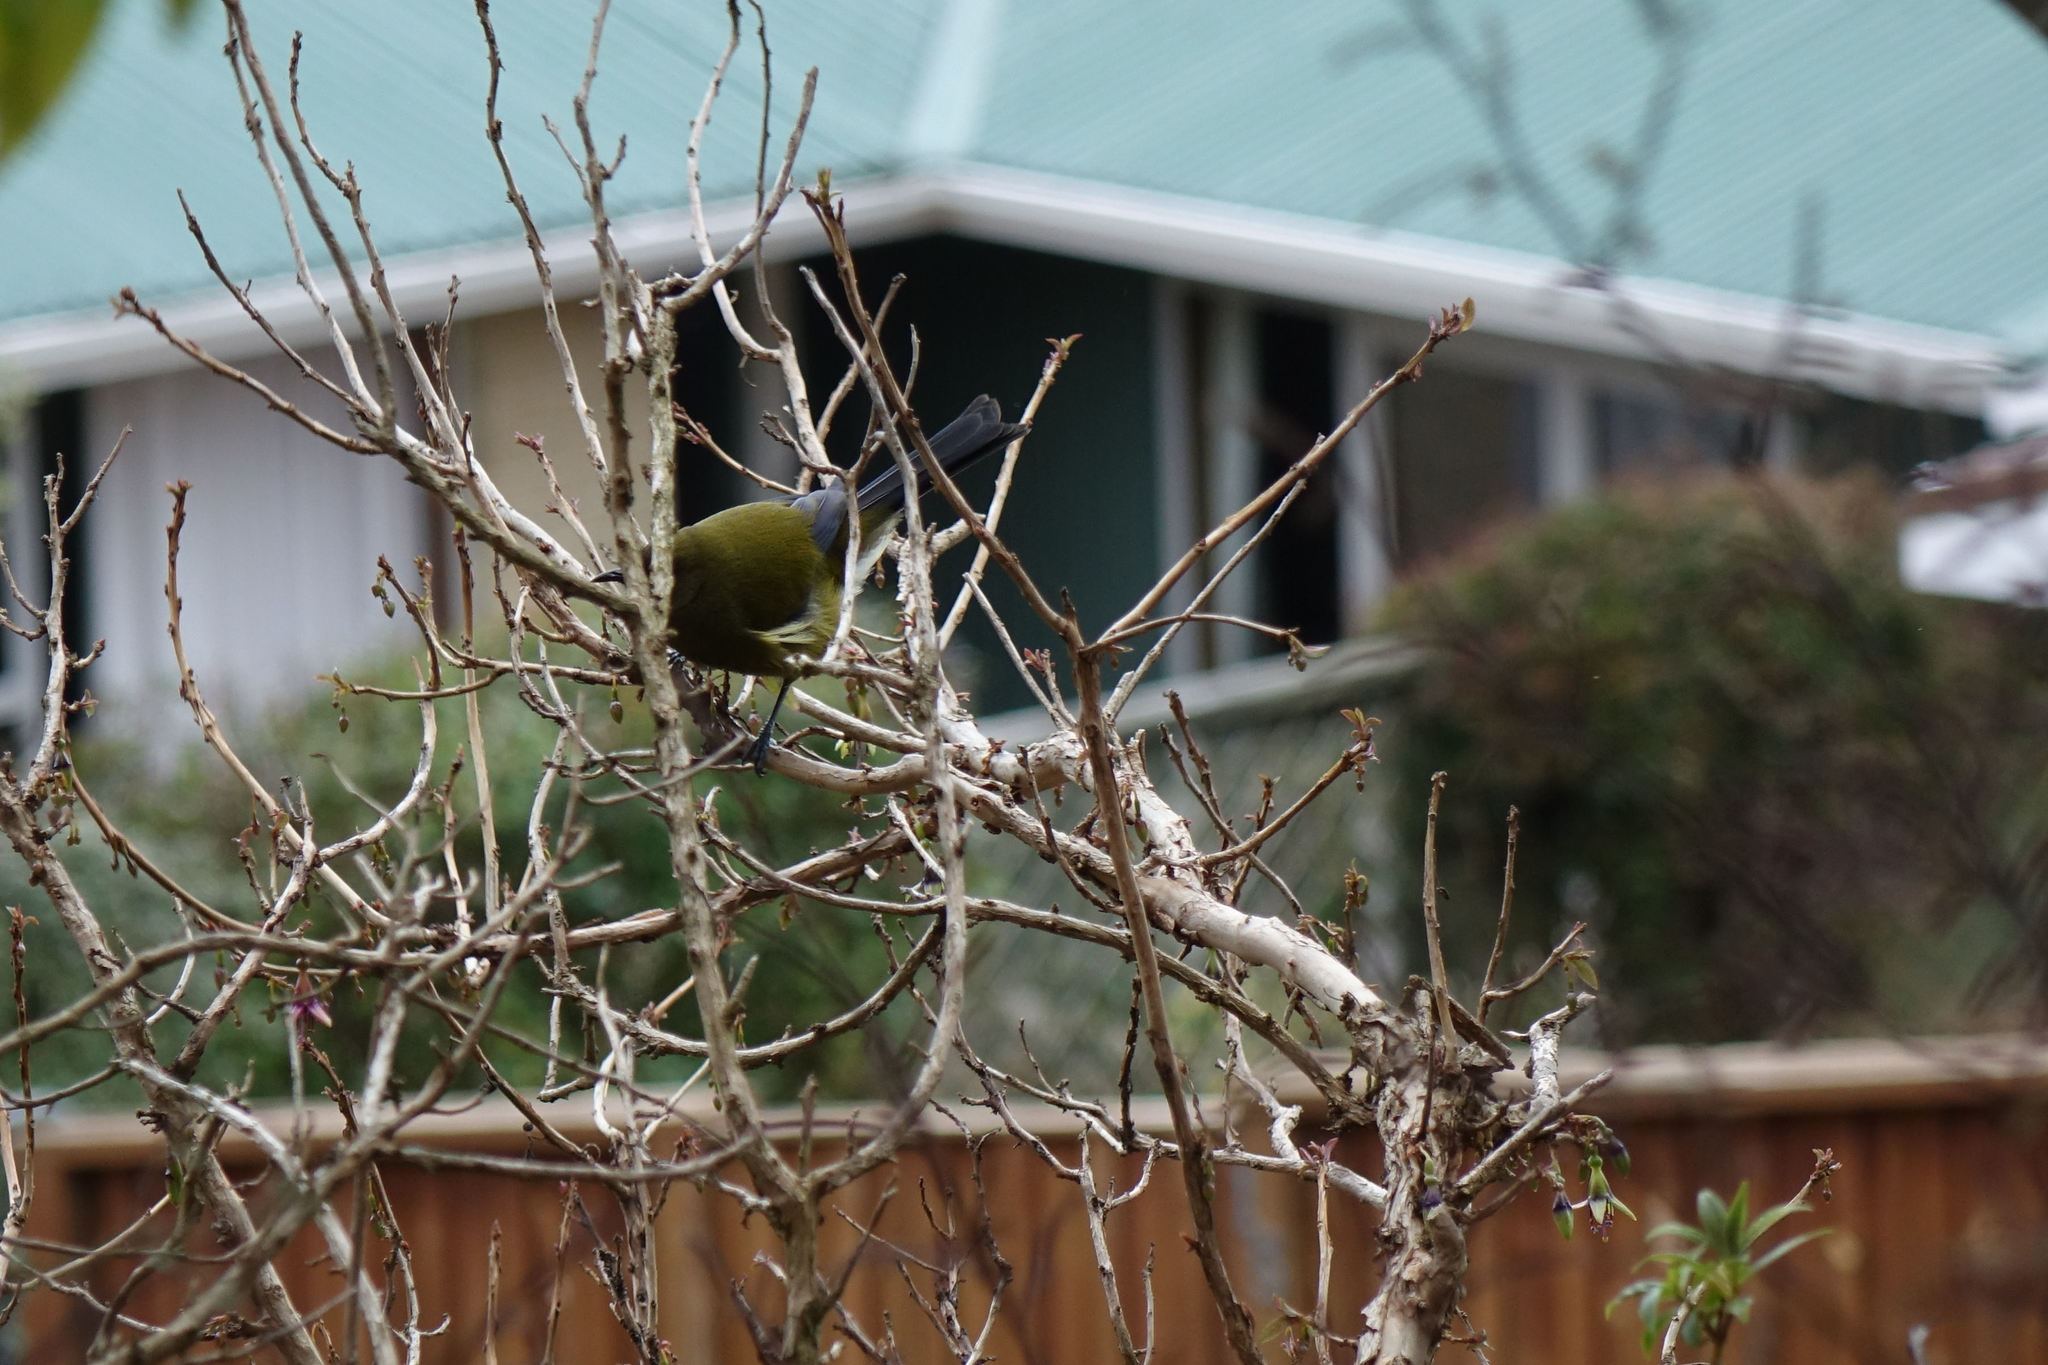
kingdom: Animalia
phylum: Chordata
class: Aves
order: Passeriformes
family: Meliphagidae
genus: Anthornis
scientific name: Anthornis melanura
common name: New zealand bellbird
